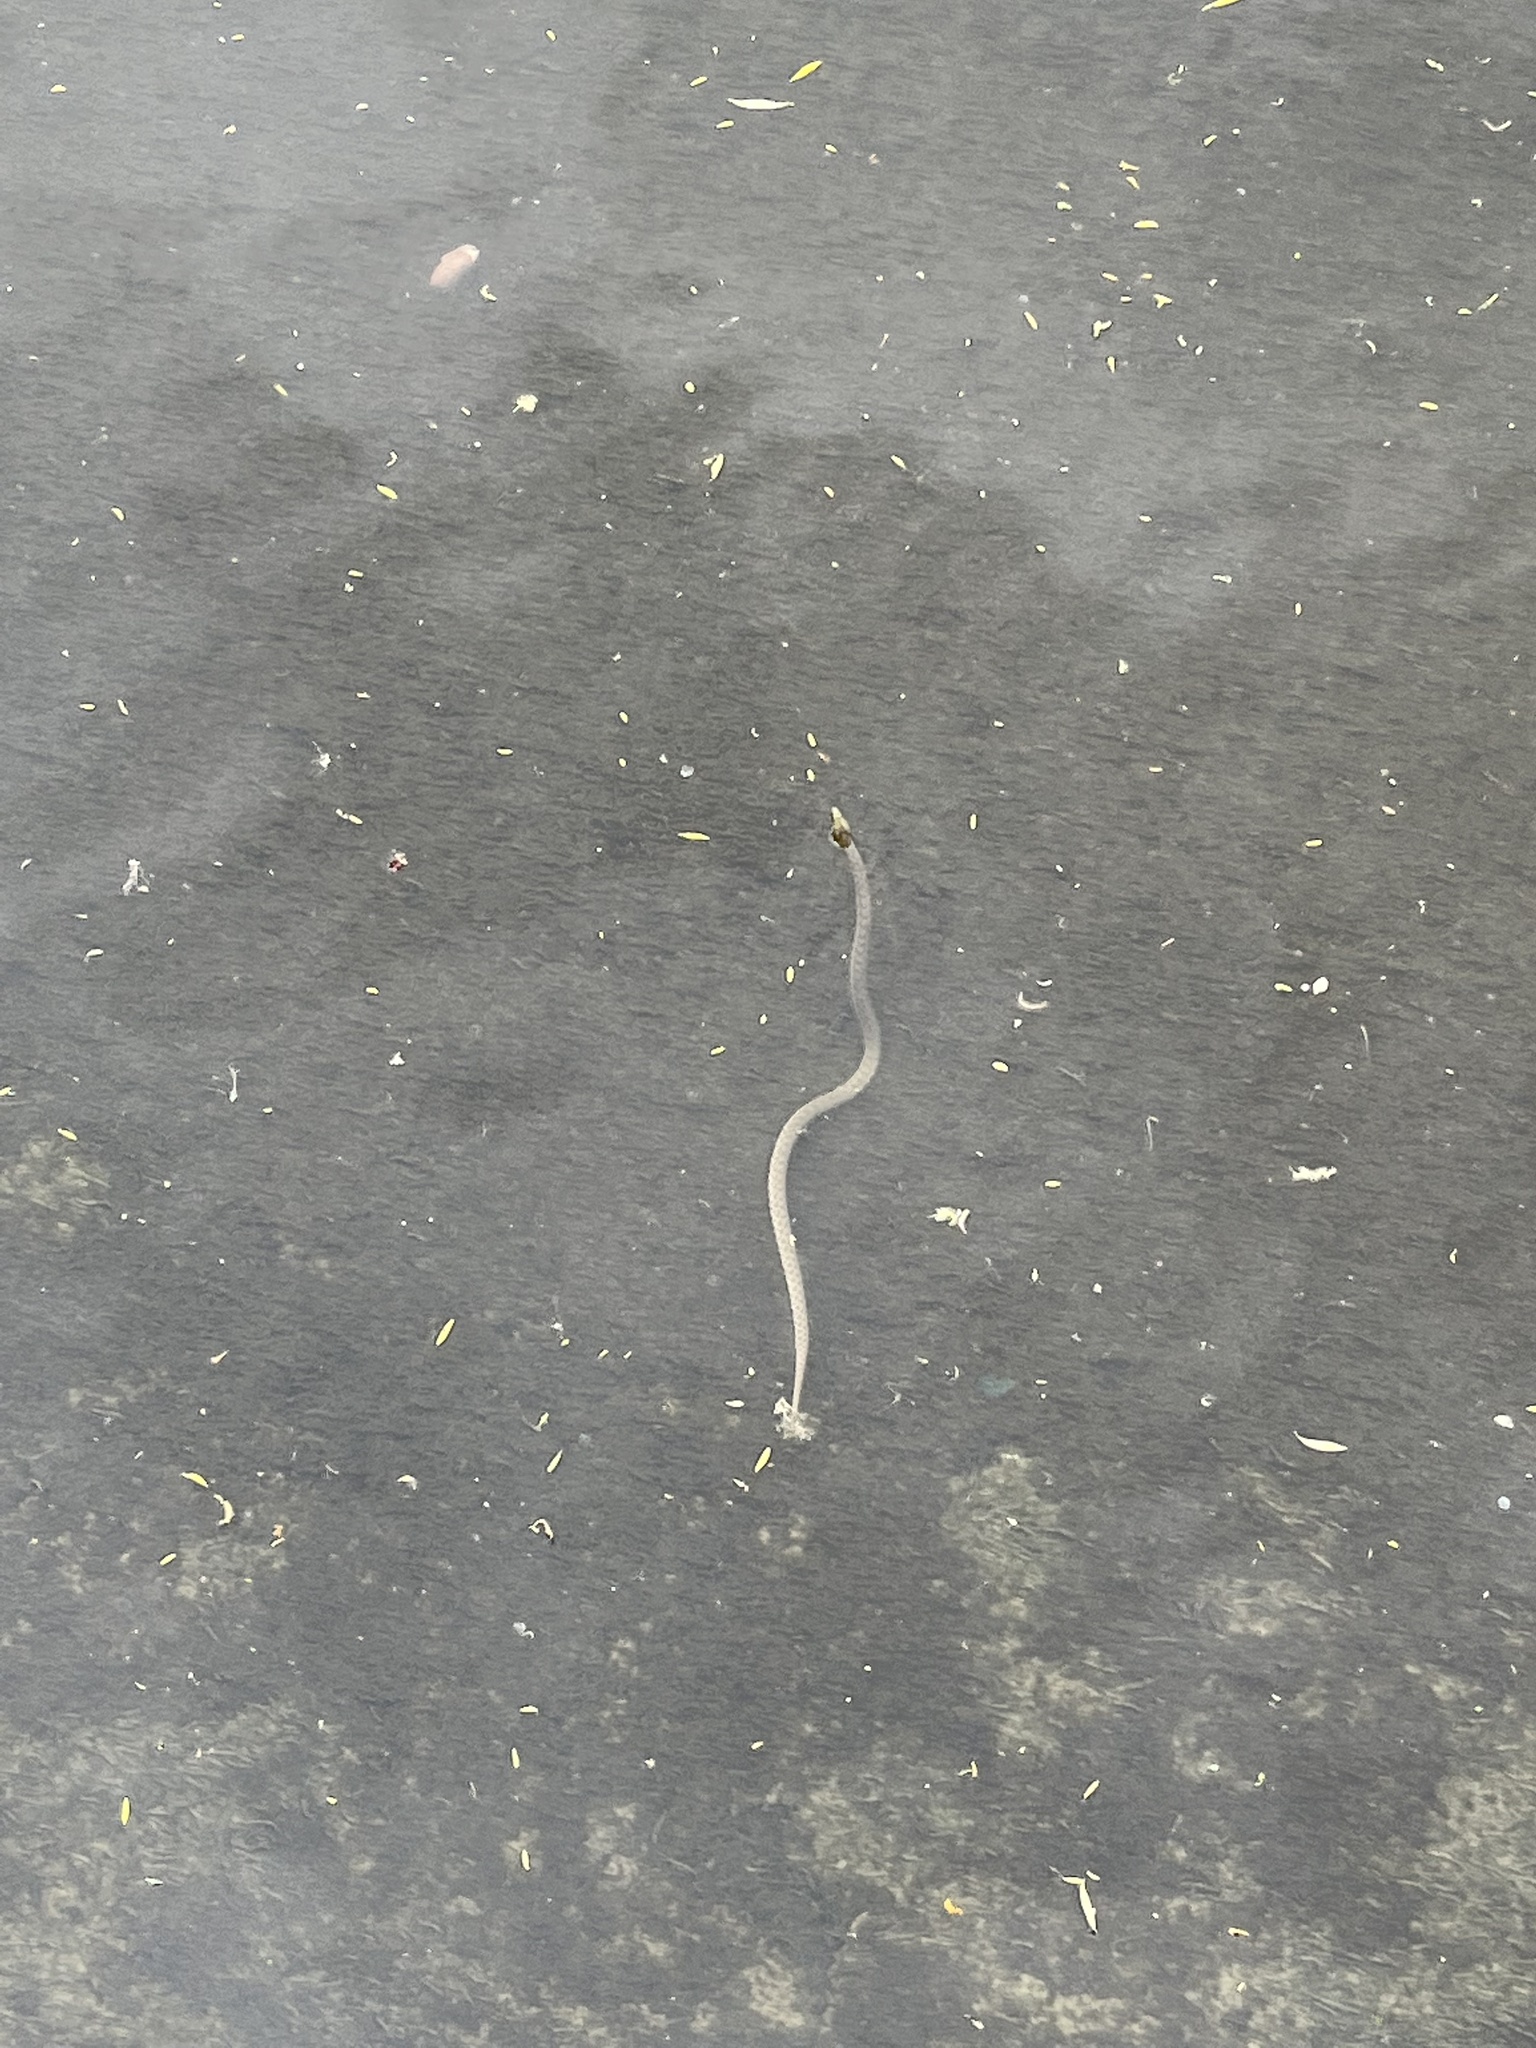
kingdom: Animalia
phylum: Chordata
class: Squamata
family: Colubridae
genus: Natrix
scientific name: Natrix tessellata
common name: Dice snake
